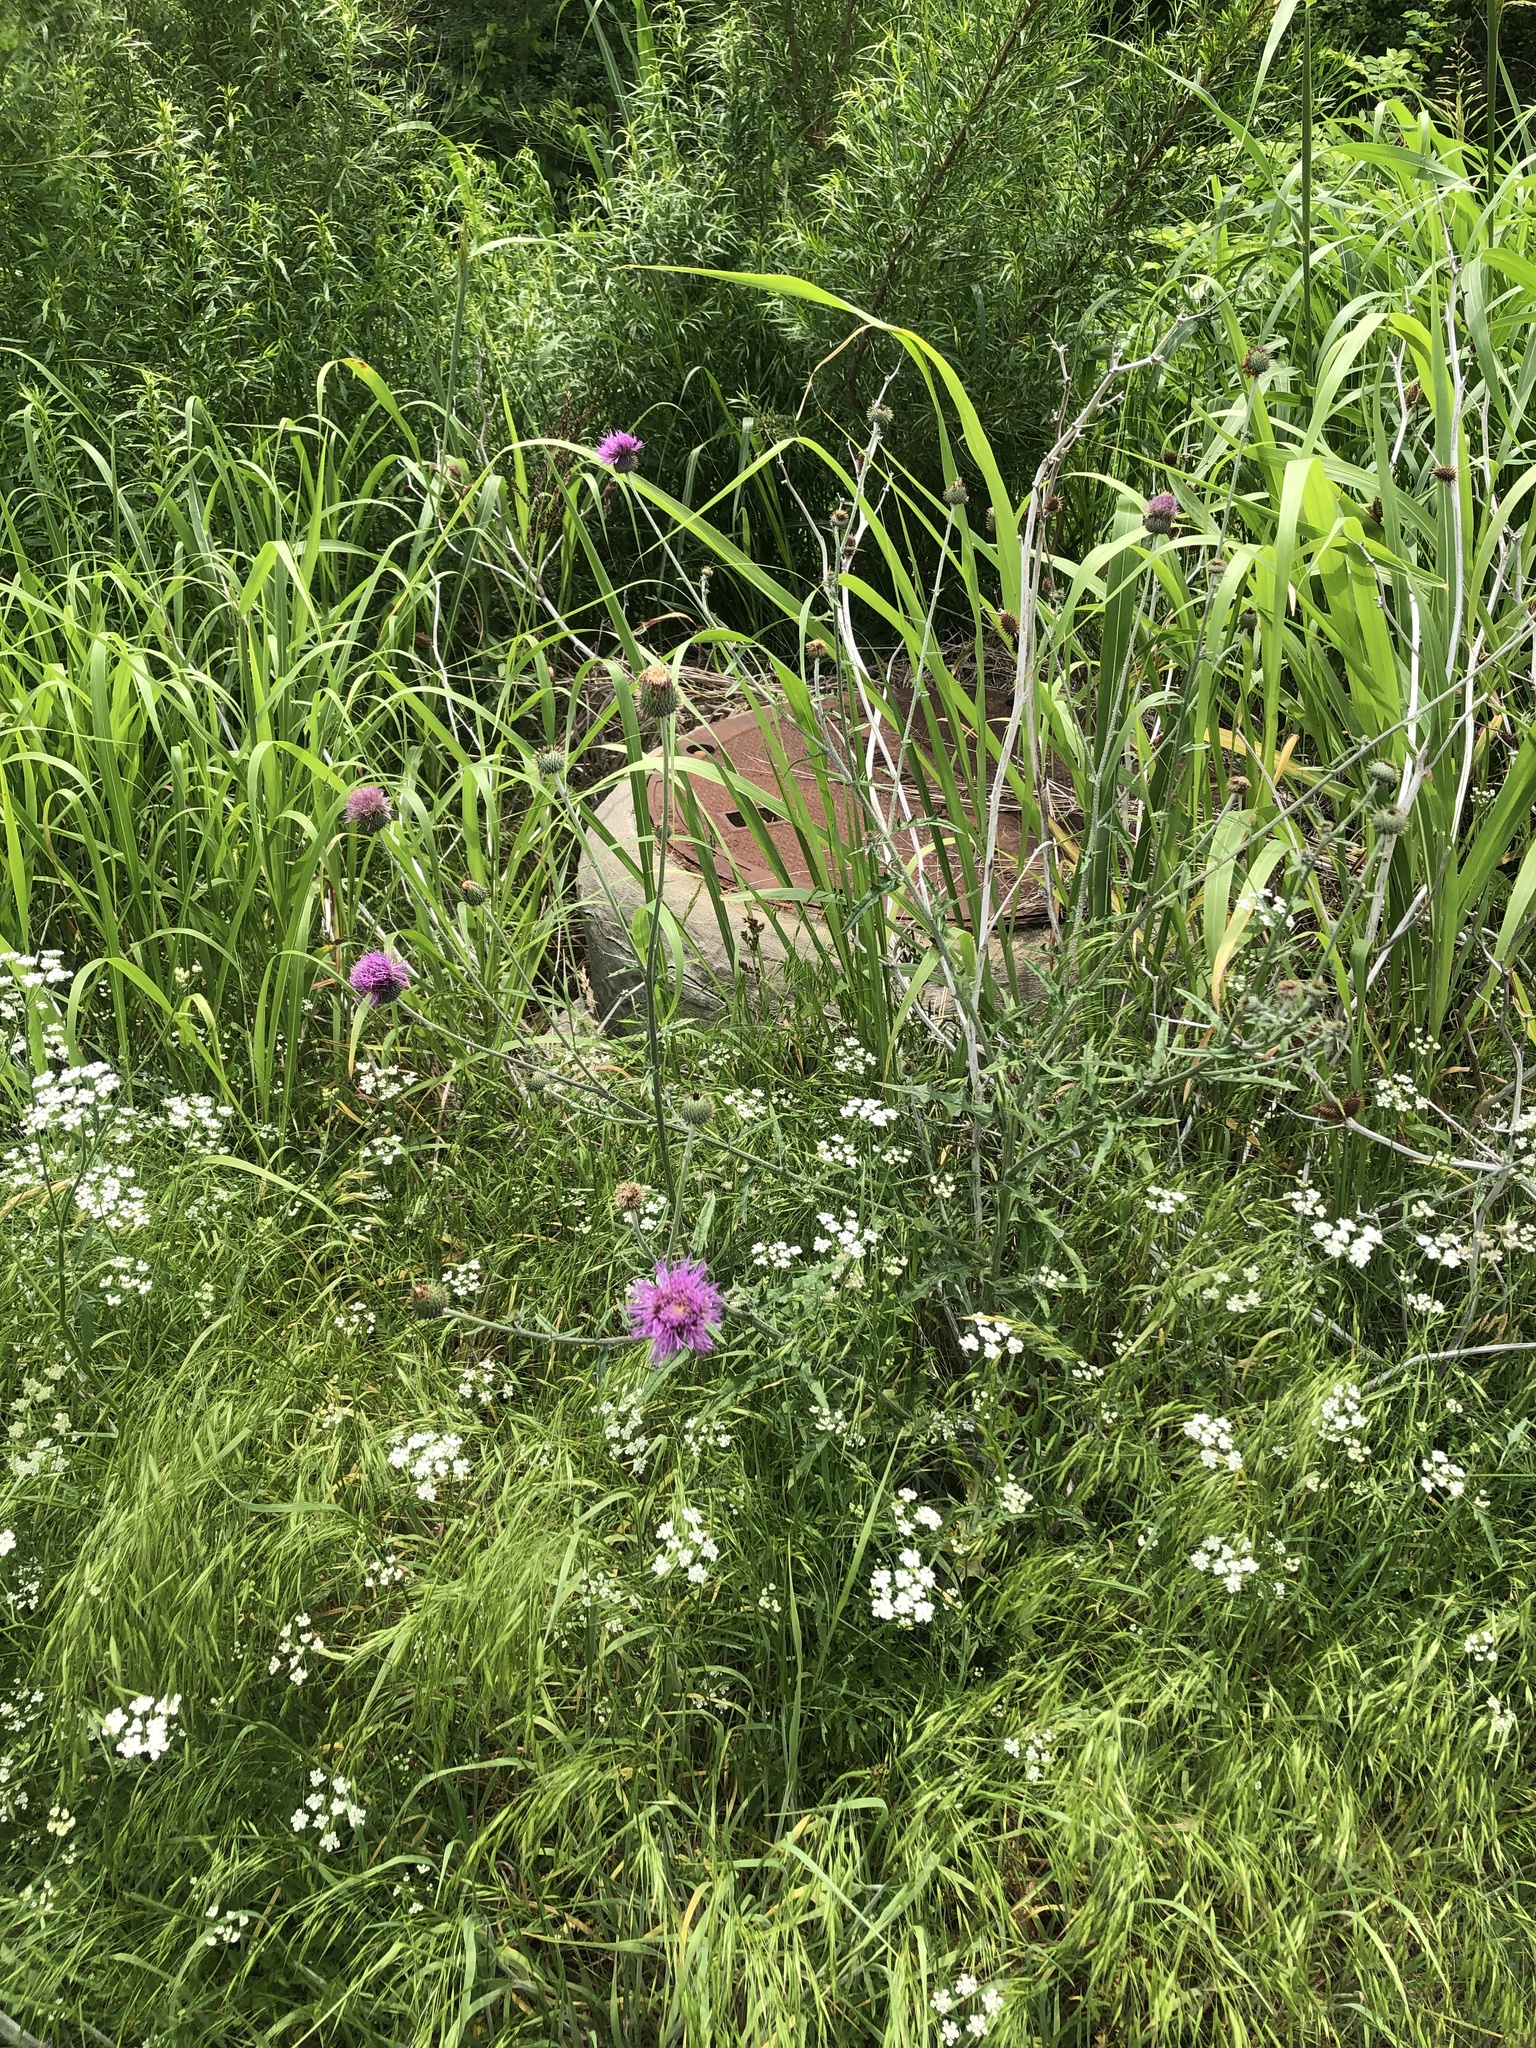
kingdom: Plantae
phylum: Tracheophyta
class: Magnoliopsida
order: Asterales
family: Asteraceae
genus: Cirsium
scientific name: Cirsium texanum
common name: Texas purple thistle
